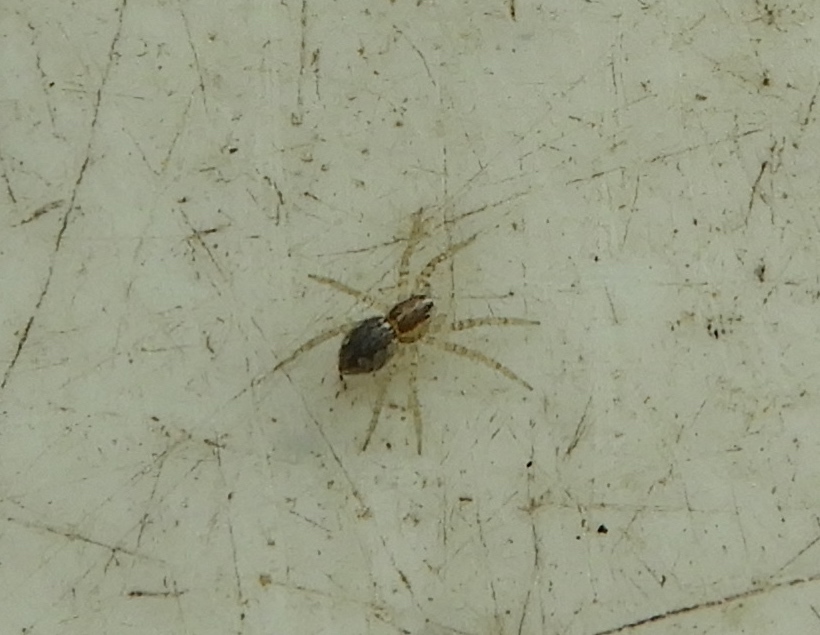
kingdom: Animalia
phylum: Arthropoda
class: Arachnida
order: Araneae
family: Pisauridae
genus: Tinus
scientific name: Tinus
